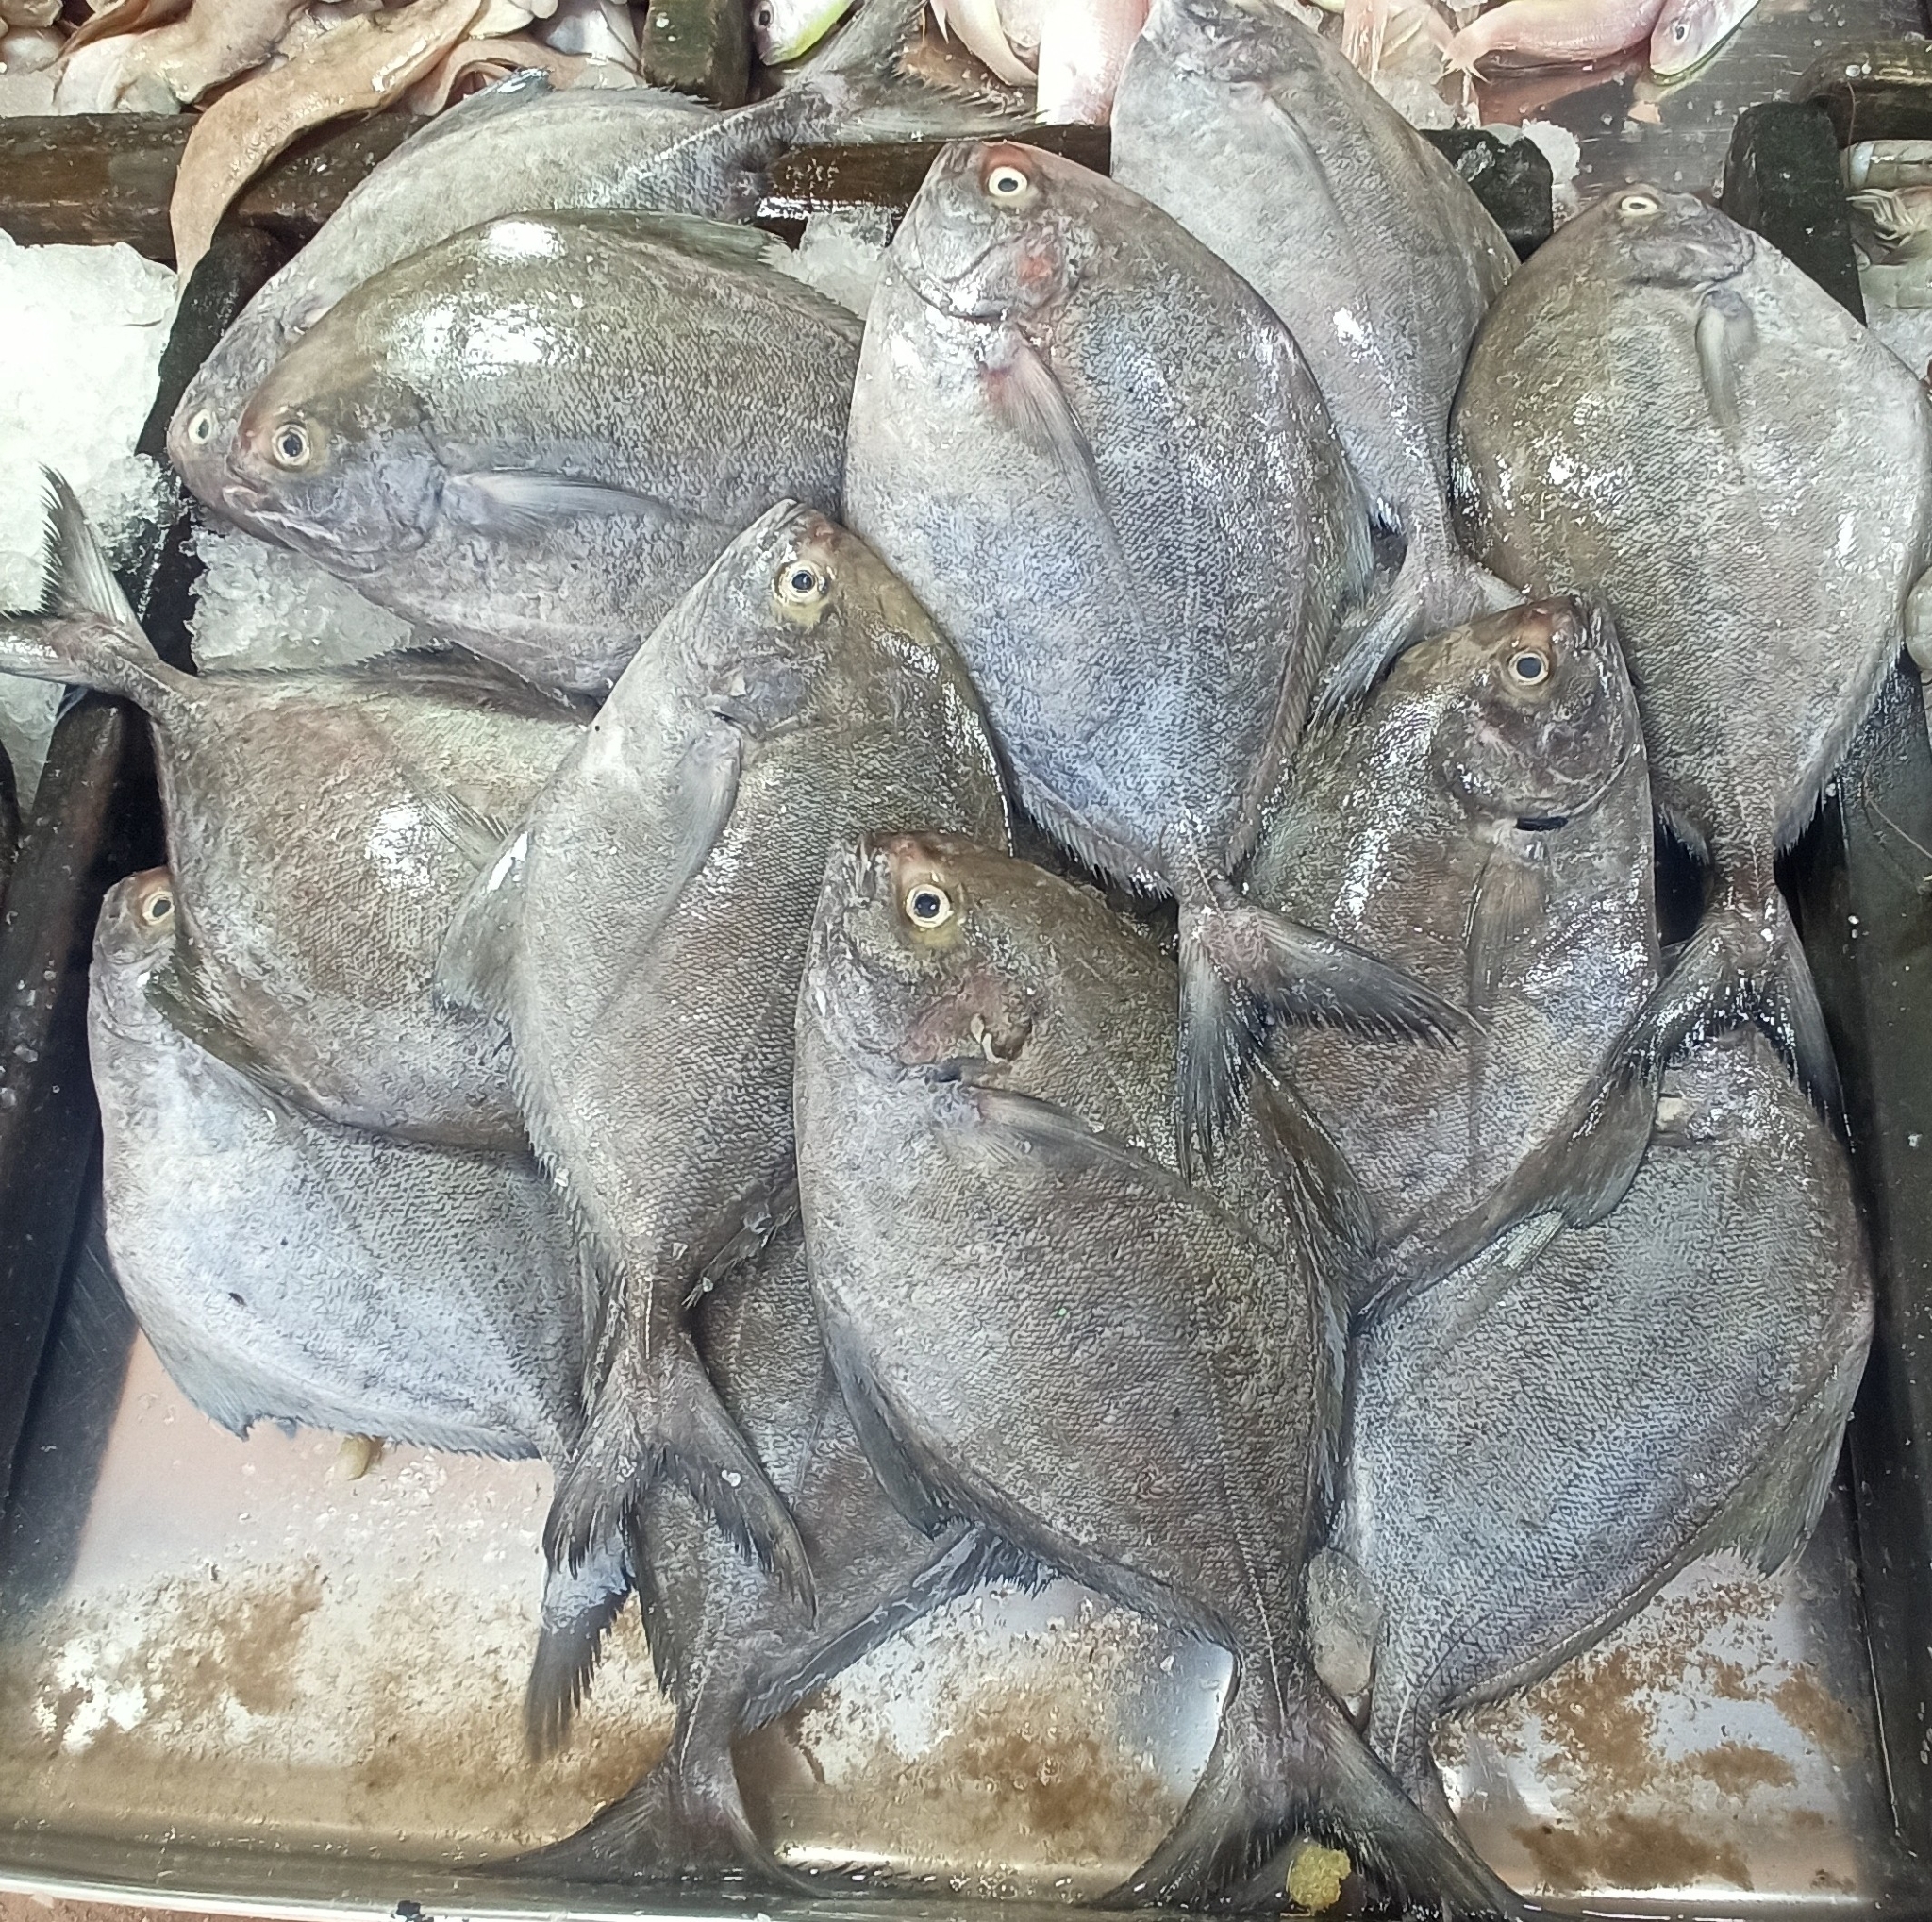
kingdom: Animalia
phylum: Chordata
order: Perciformes
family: Carangidae
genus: Parastromateus
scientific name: Parastromateus niger
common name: Black pomfret
